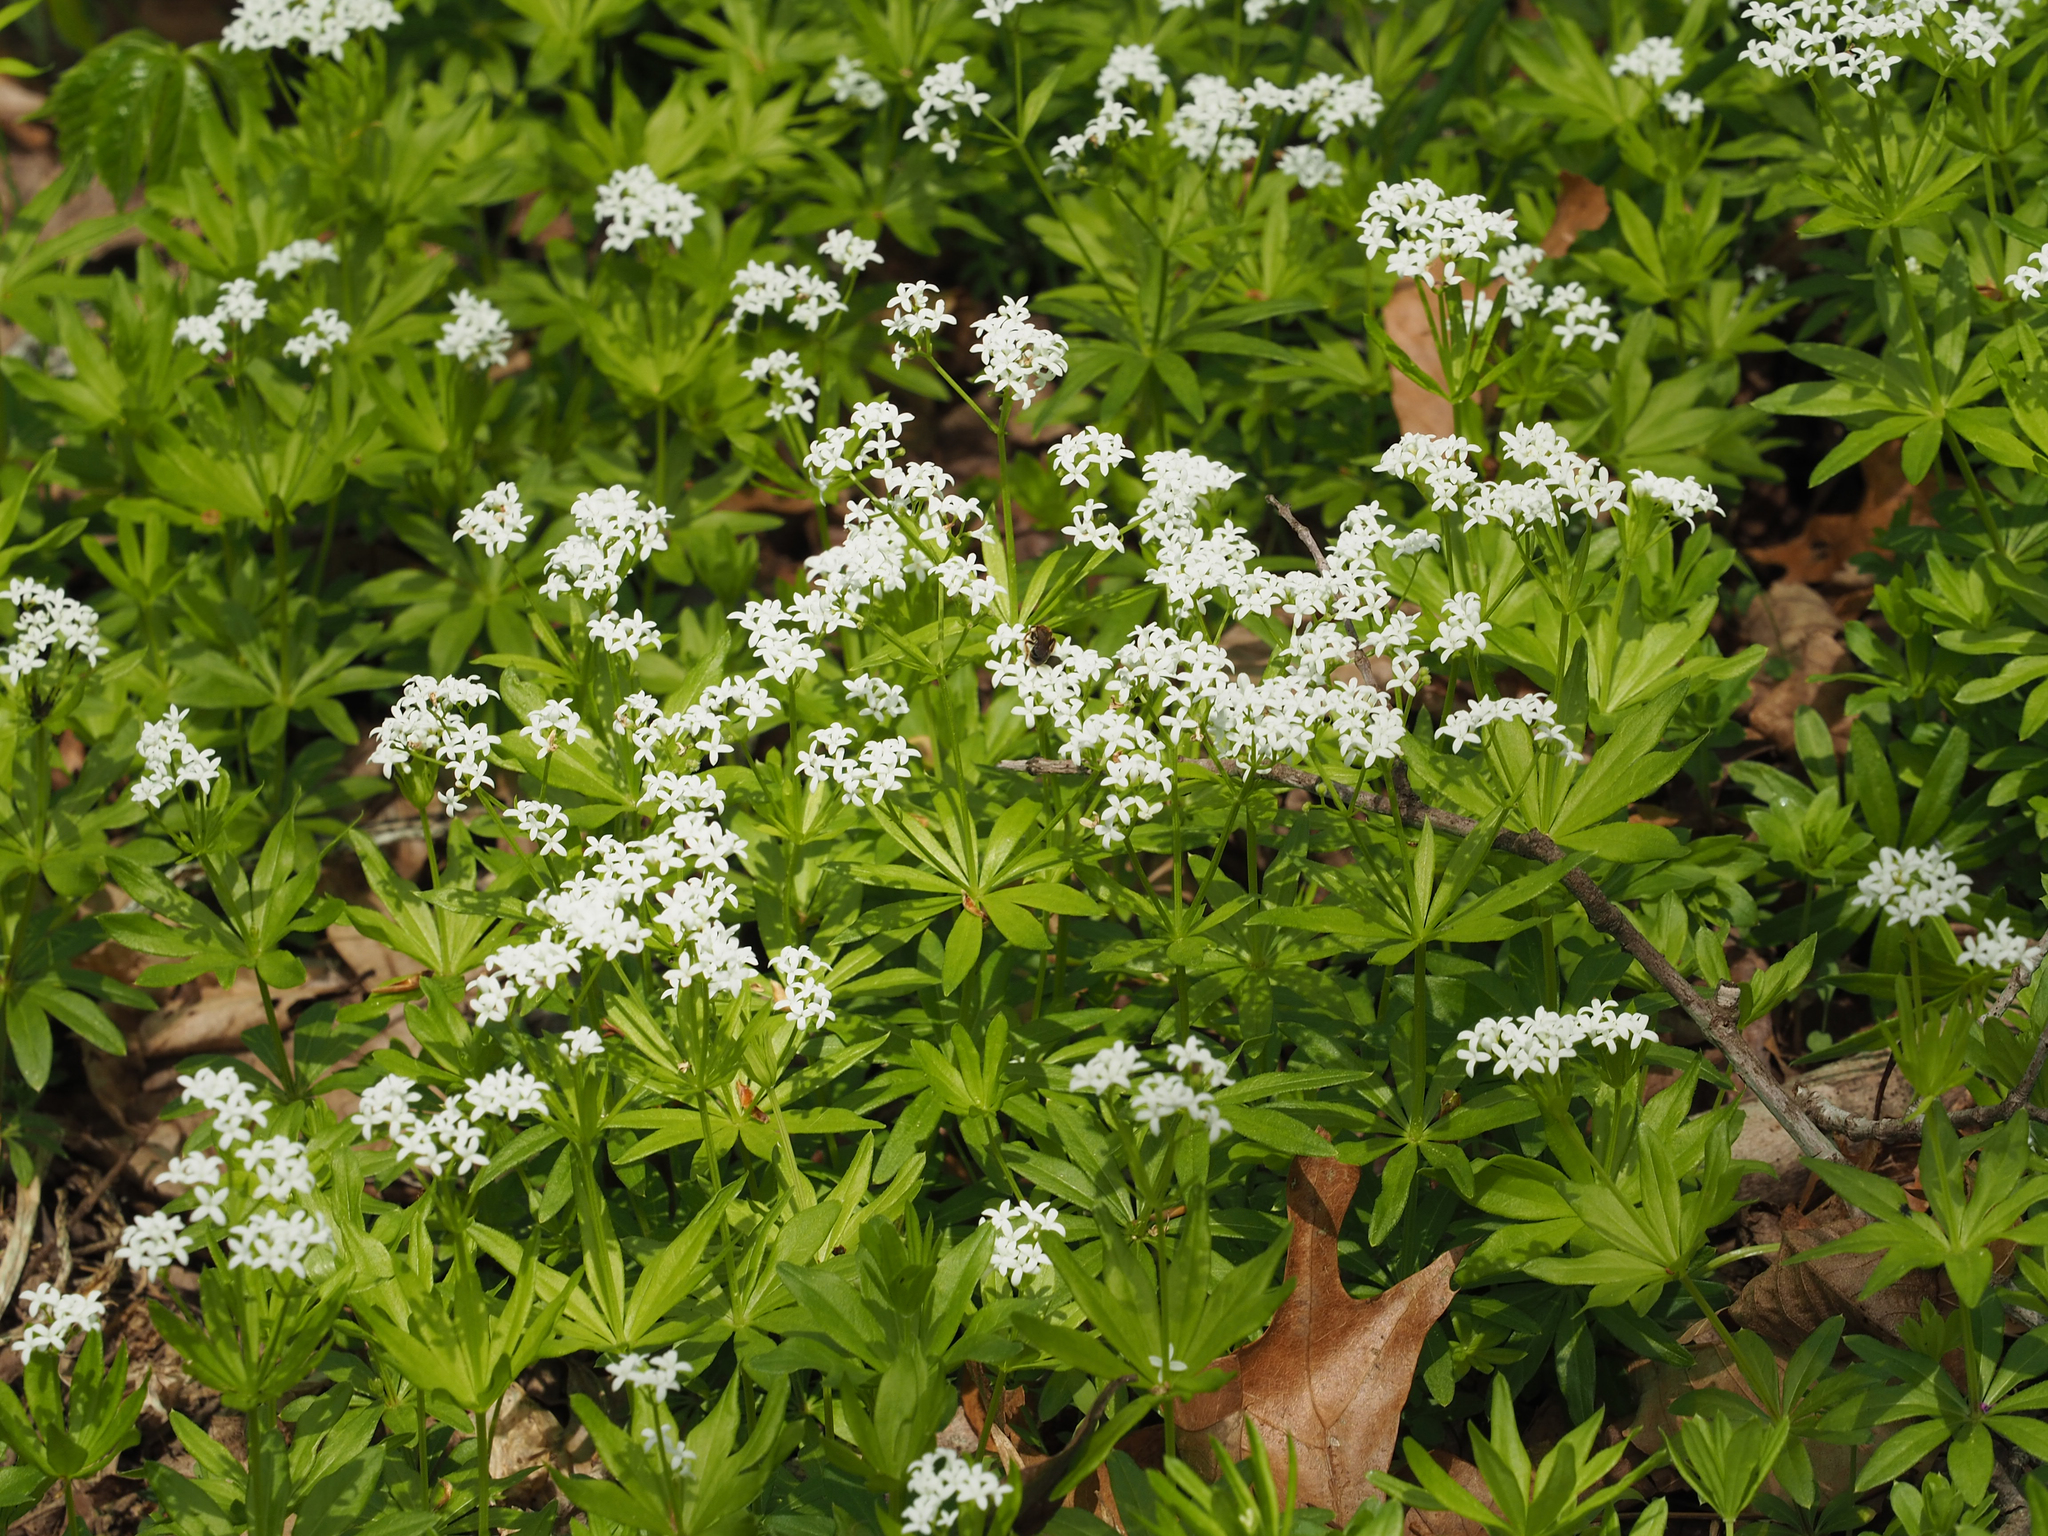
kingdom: Plantae
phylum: Tracheophyta
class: Magnoliopsida
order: Gentianales
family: Rubiaceae
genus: Galium
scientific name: Galium odoratum
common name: Sweet woodruff
